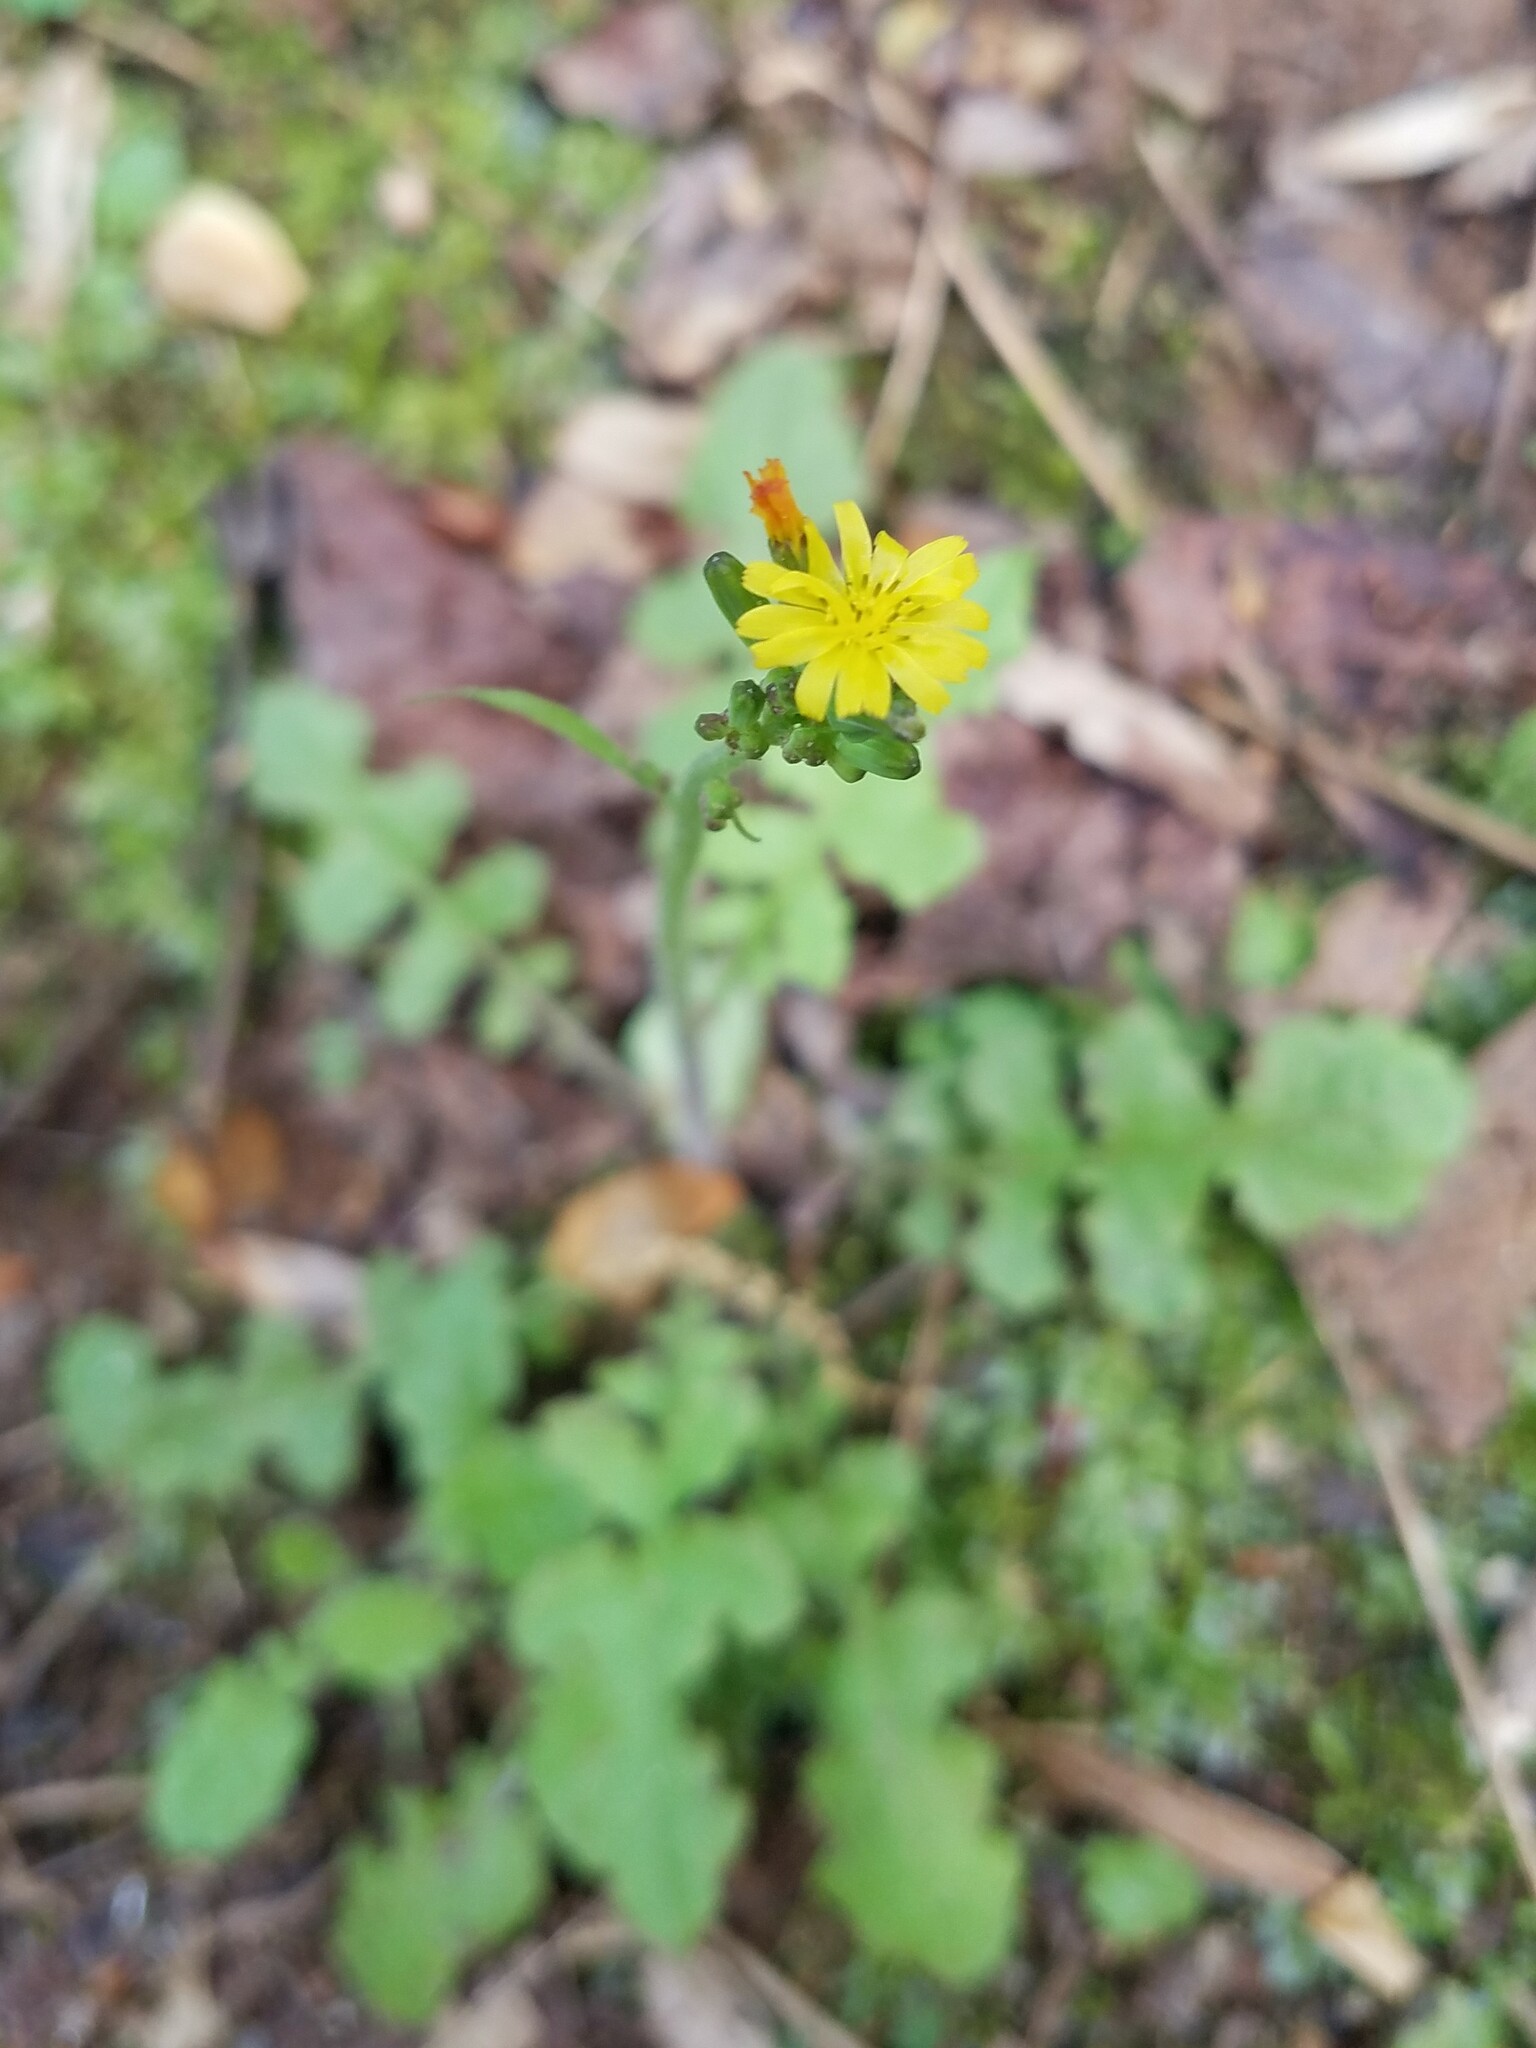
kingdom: Plantae
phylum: Tracheophyta
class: Magnoliopsida
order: Asterales
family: Asteraceae
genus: Youngia
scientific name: Youngia japonica
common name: Oriental false hawksbeard
